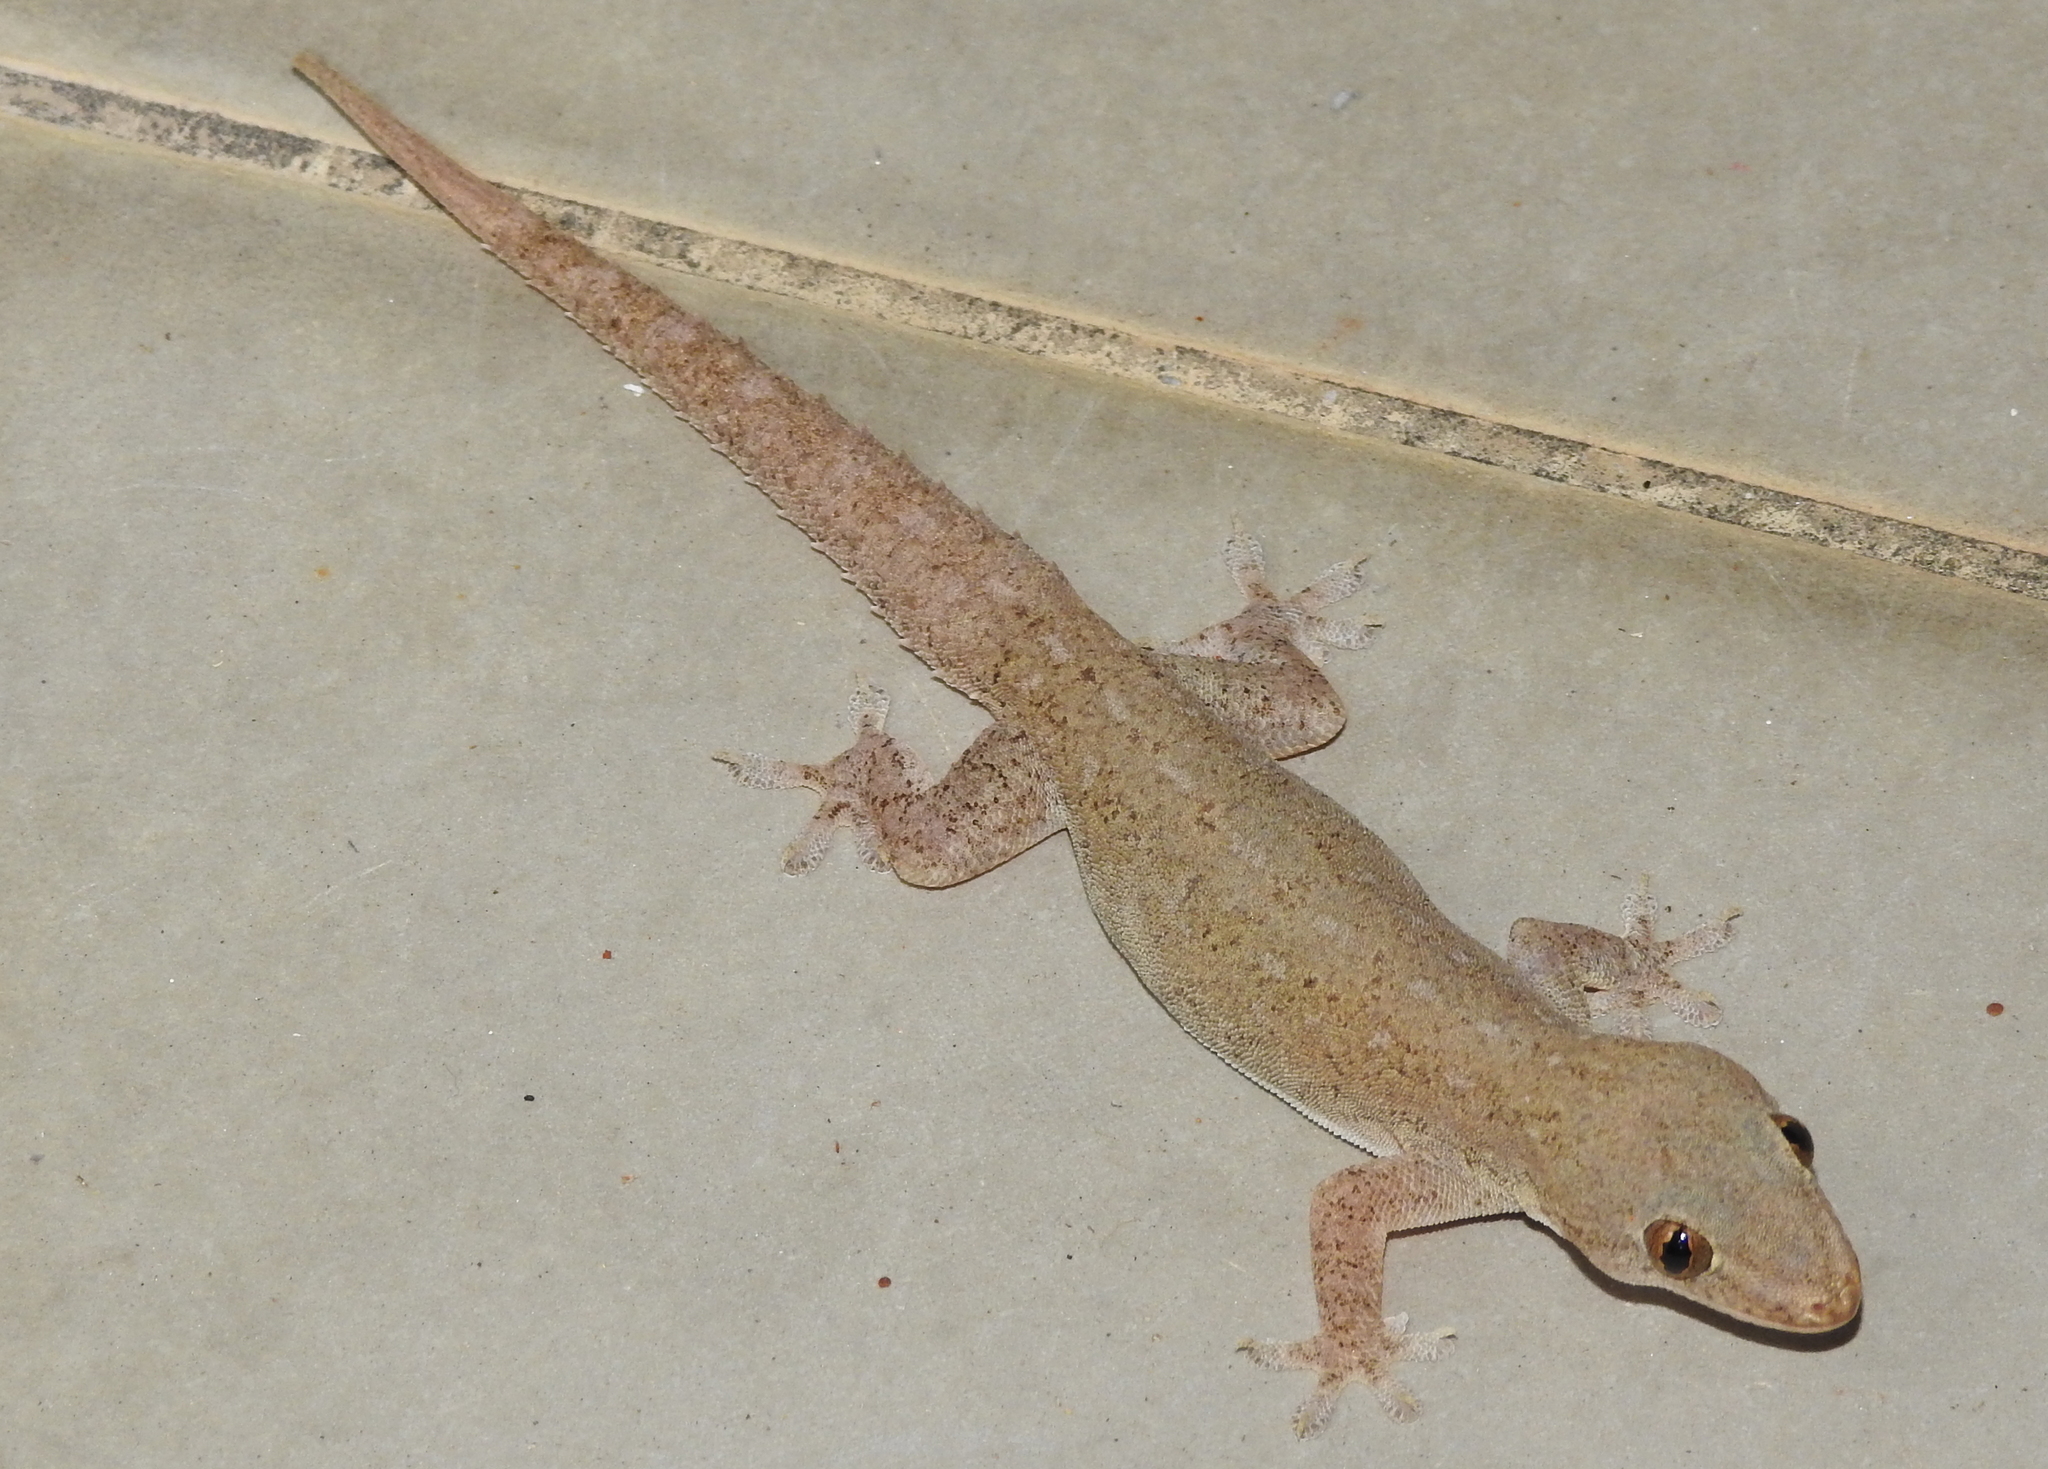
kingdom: Animalia
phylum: Chordata
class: Squamata
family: Gekkonidae
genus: Hemidactylus
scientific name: Hemidactylus frenatus
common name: Common house gecko
